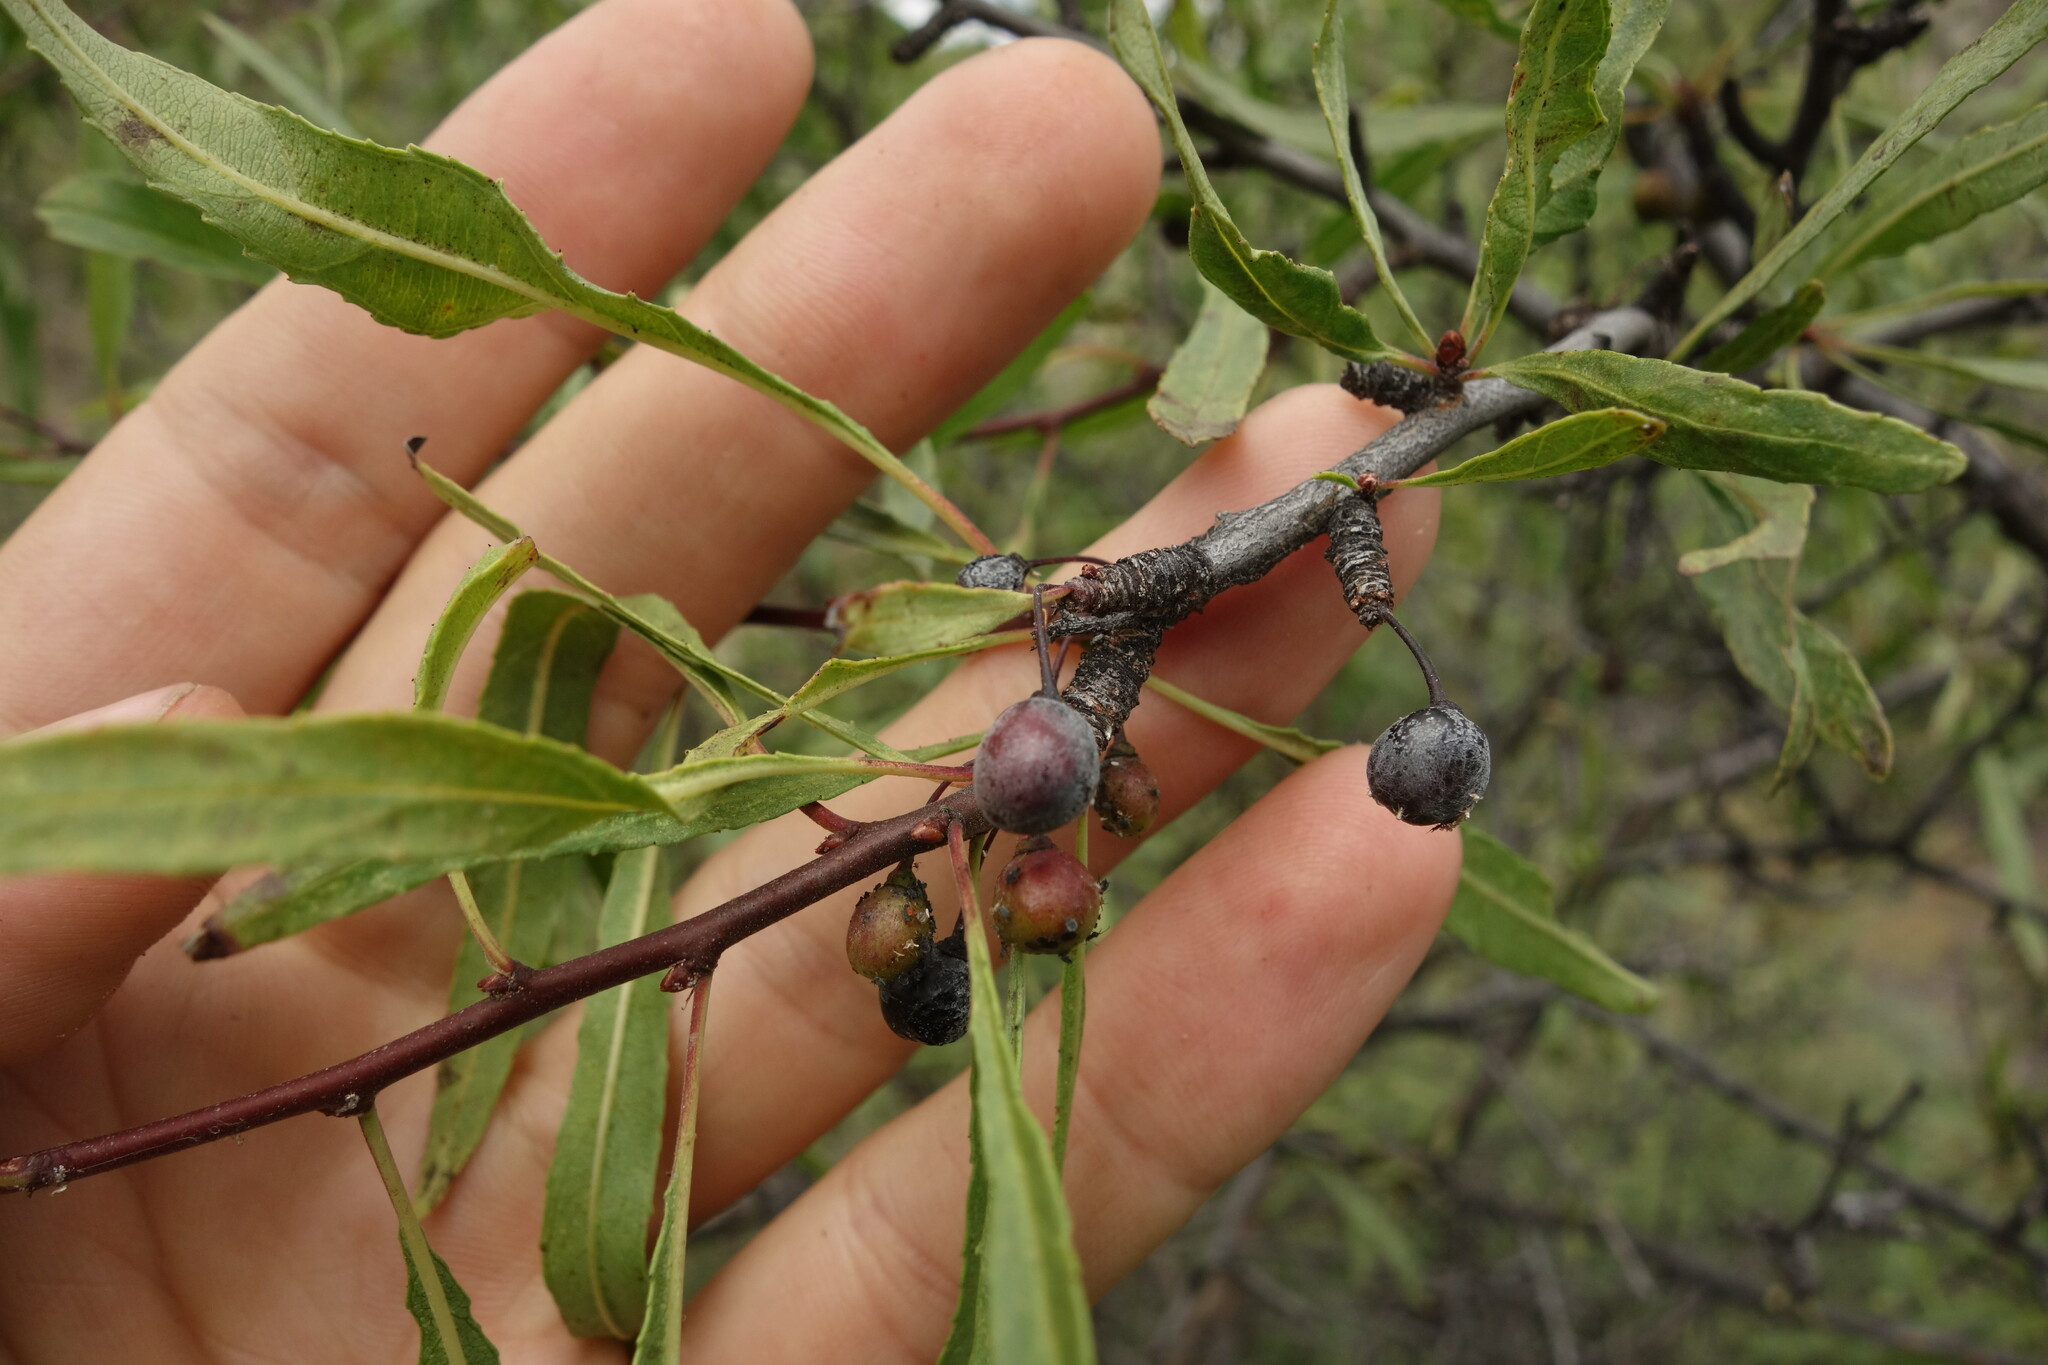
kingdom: Plantae
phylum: Tracheophyta
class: Magnoliopsida
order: Rosales
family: Rhamnaceae
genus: Rhamnus
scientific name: Rhamnus erythroxylum
